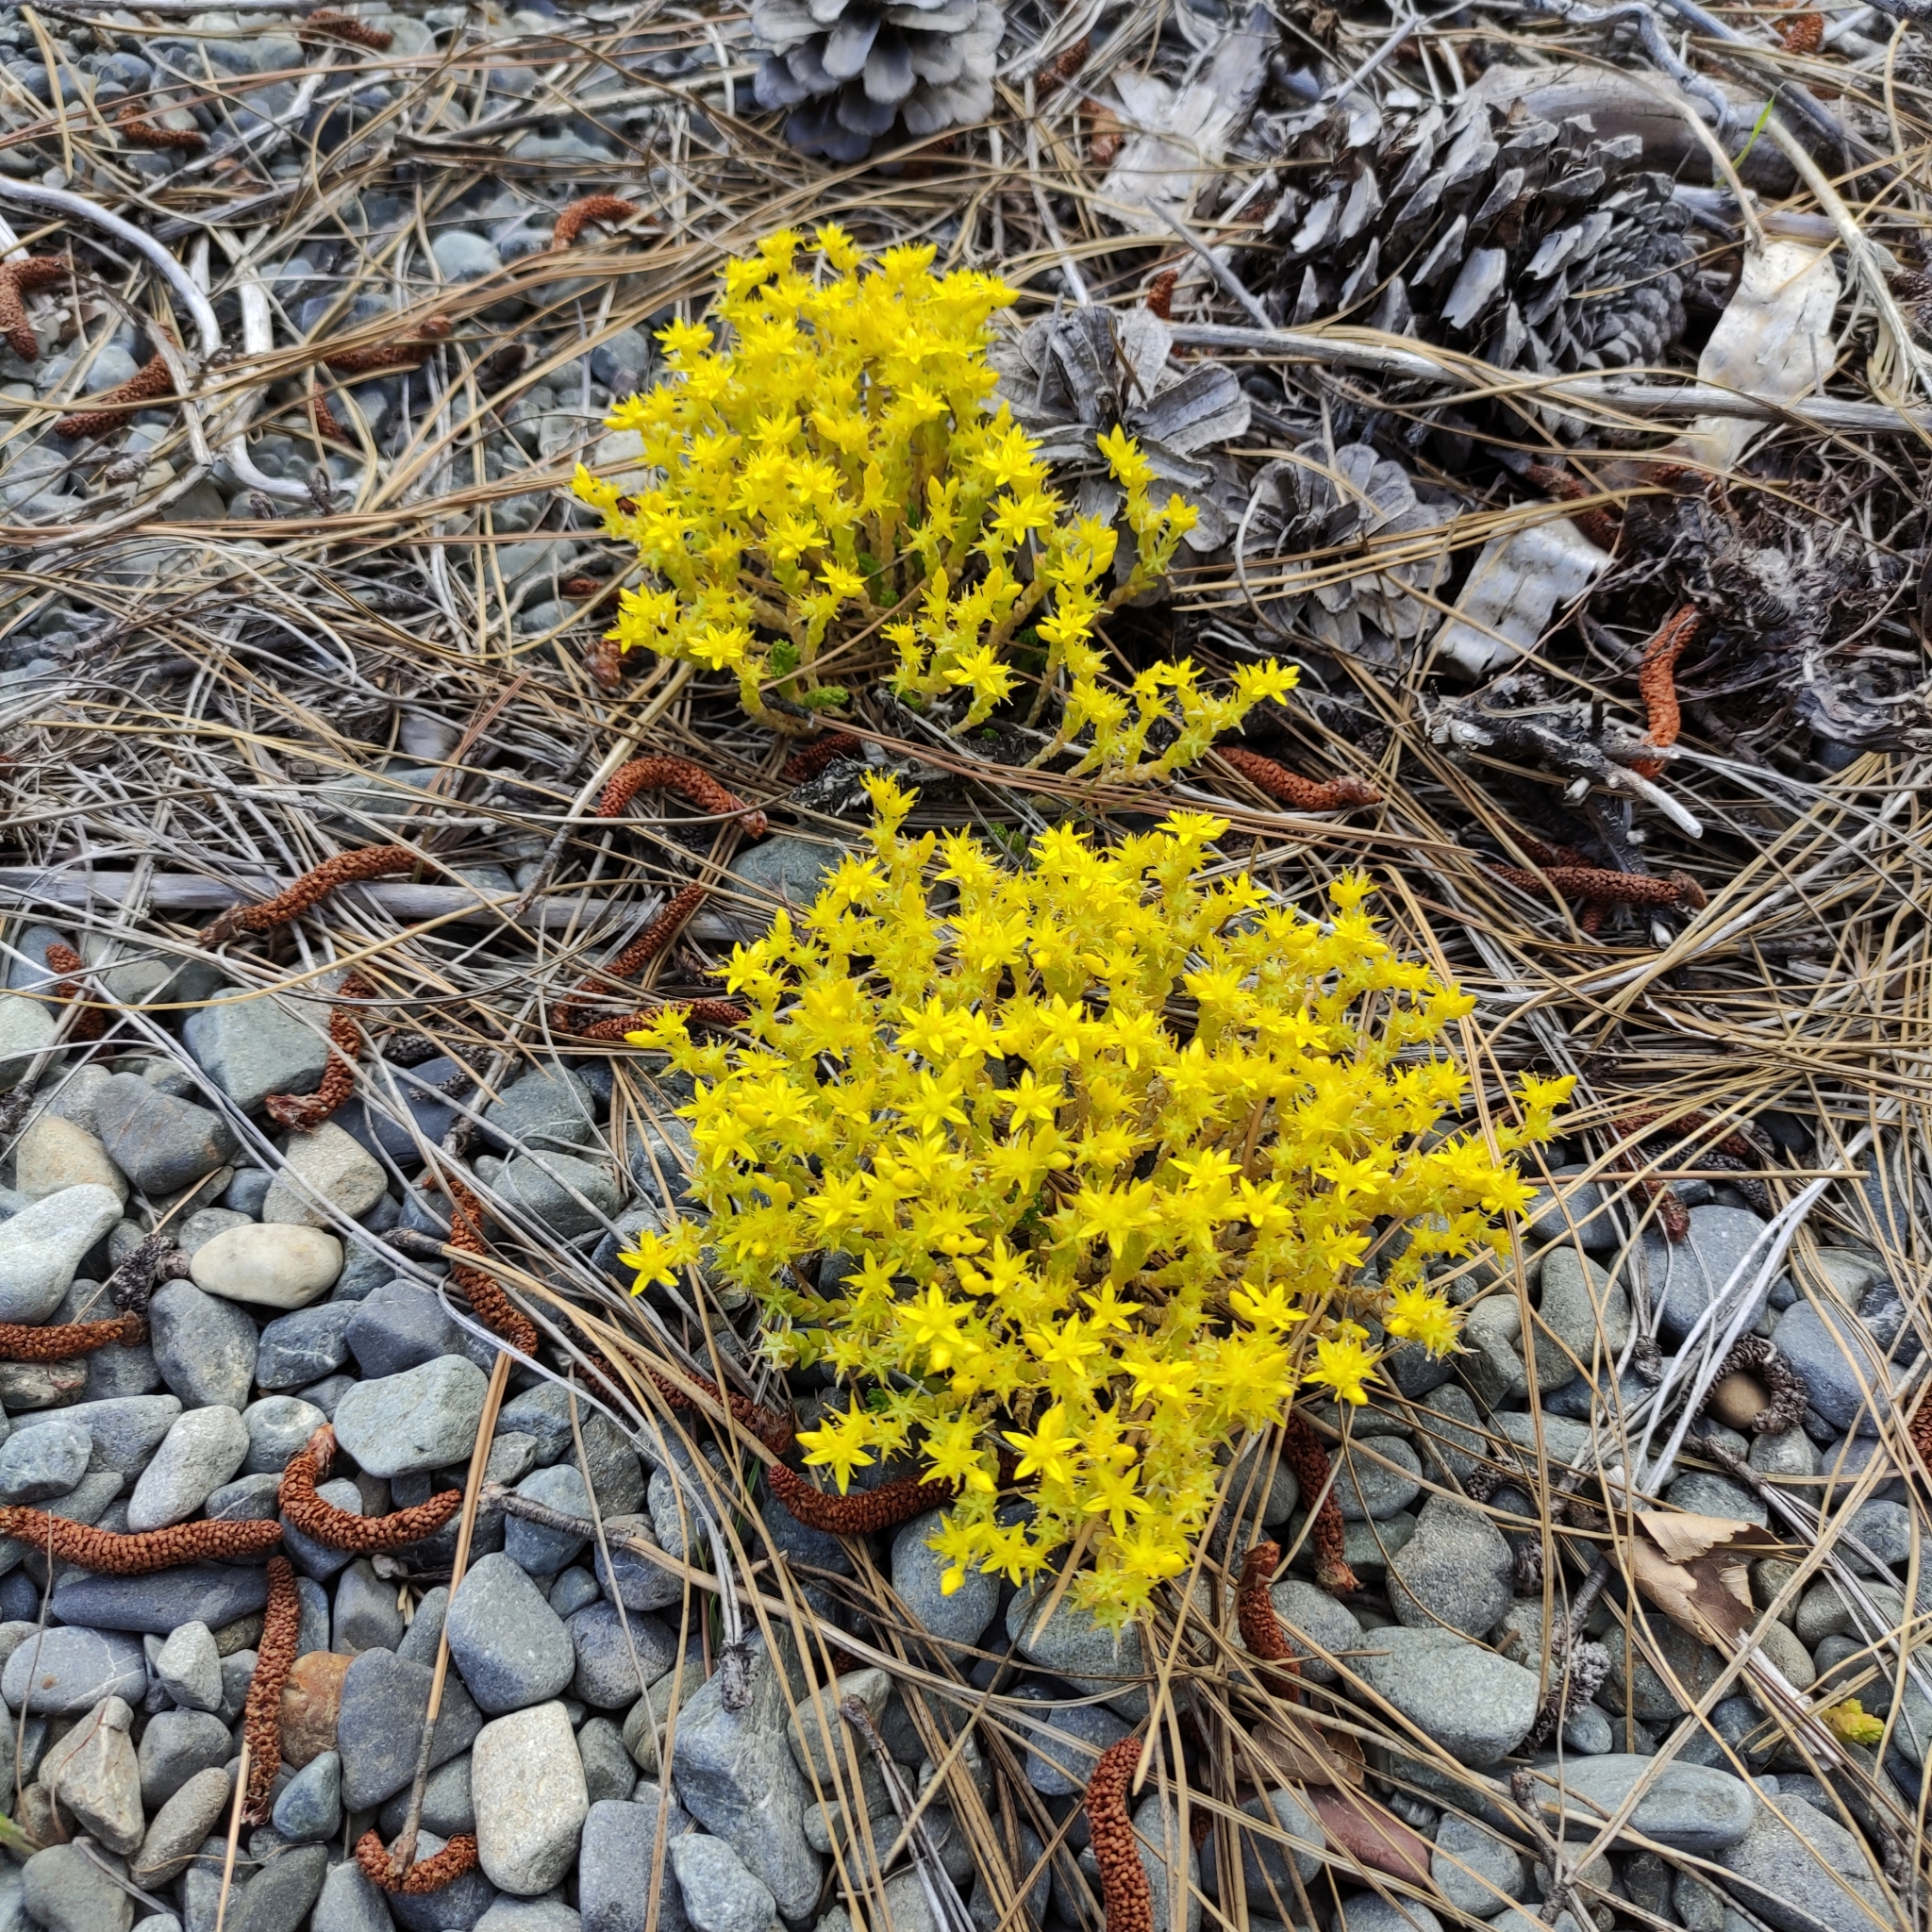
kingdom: Plantae
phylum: Tracheophyta
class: Magnoliopsida
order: Saxifragales
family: Crassulaceae
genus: Sedum
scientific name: Sedum acre
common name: Biting stonecrop
